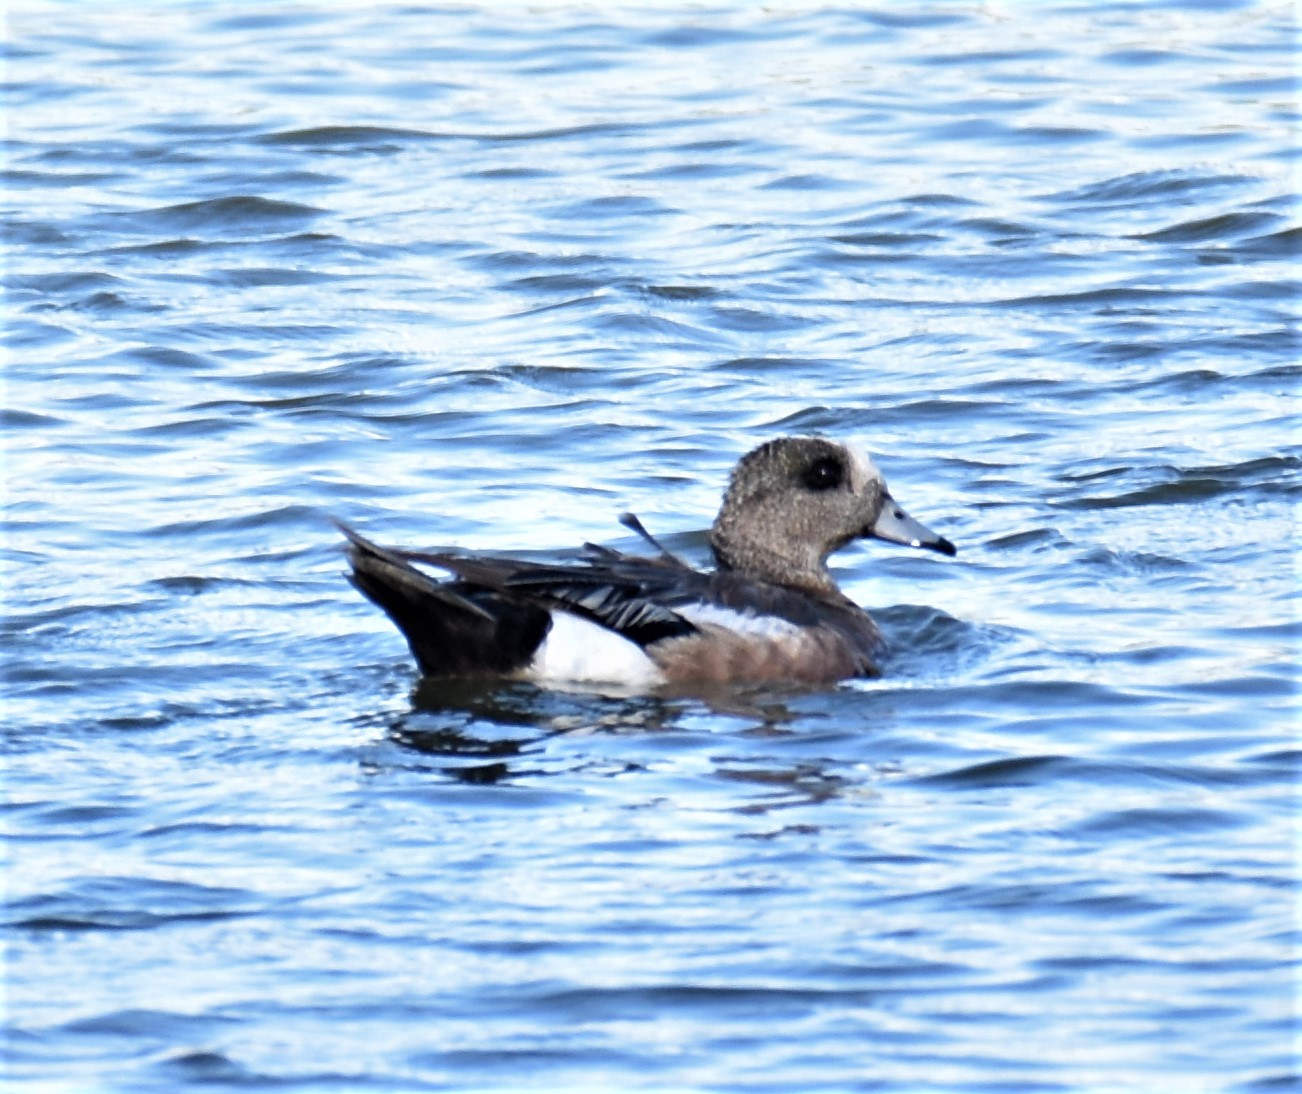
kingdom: Animalia
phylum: Chordata
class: Aves
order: Anseriformes
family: Anatidae
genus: Mareca
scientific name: Mareca americana
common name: American wigeon
